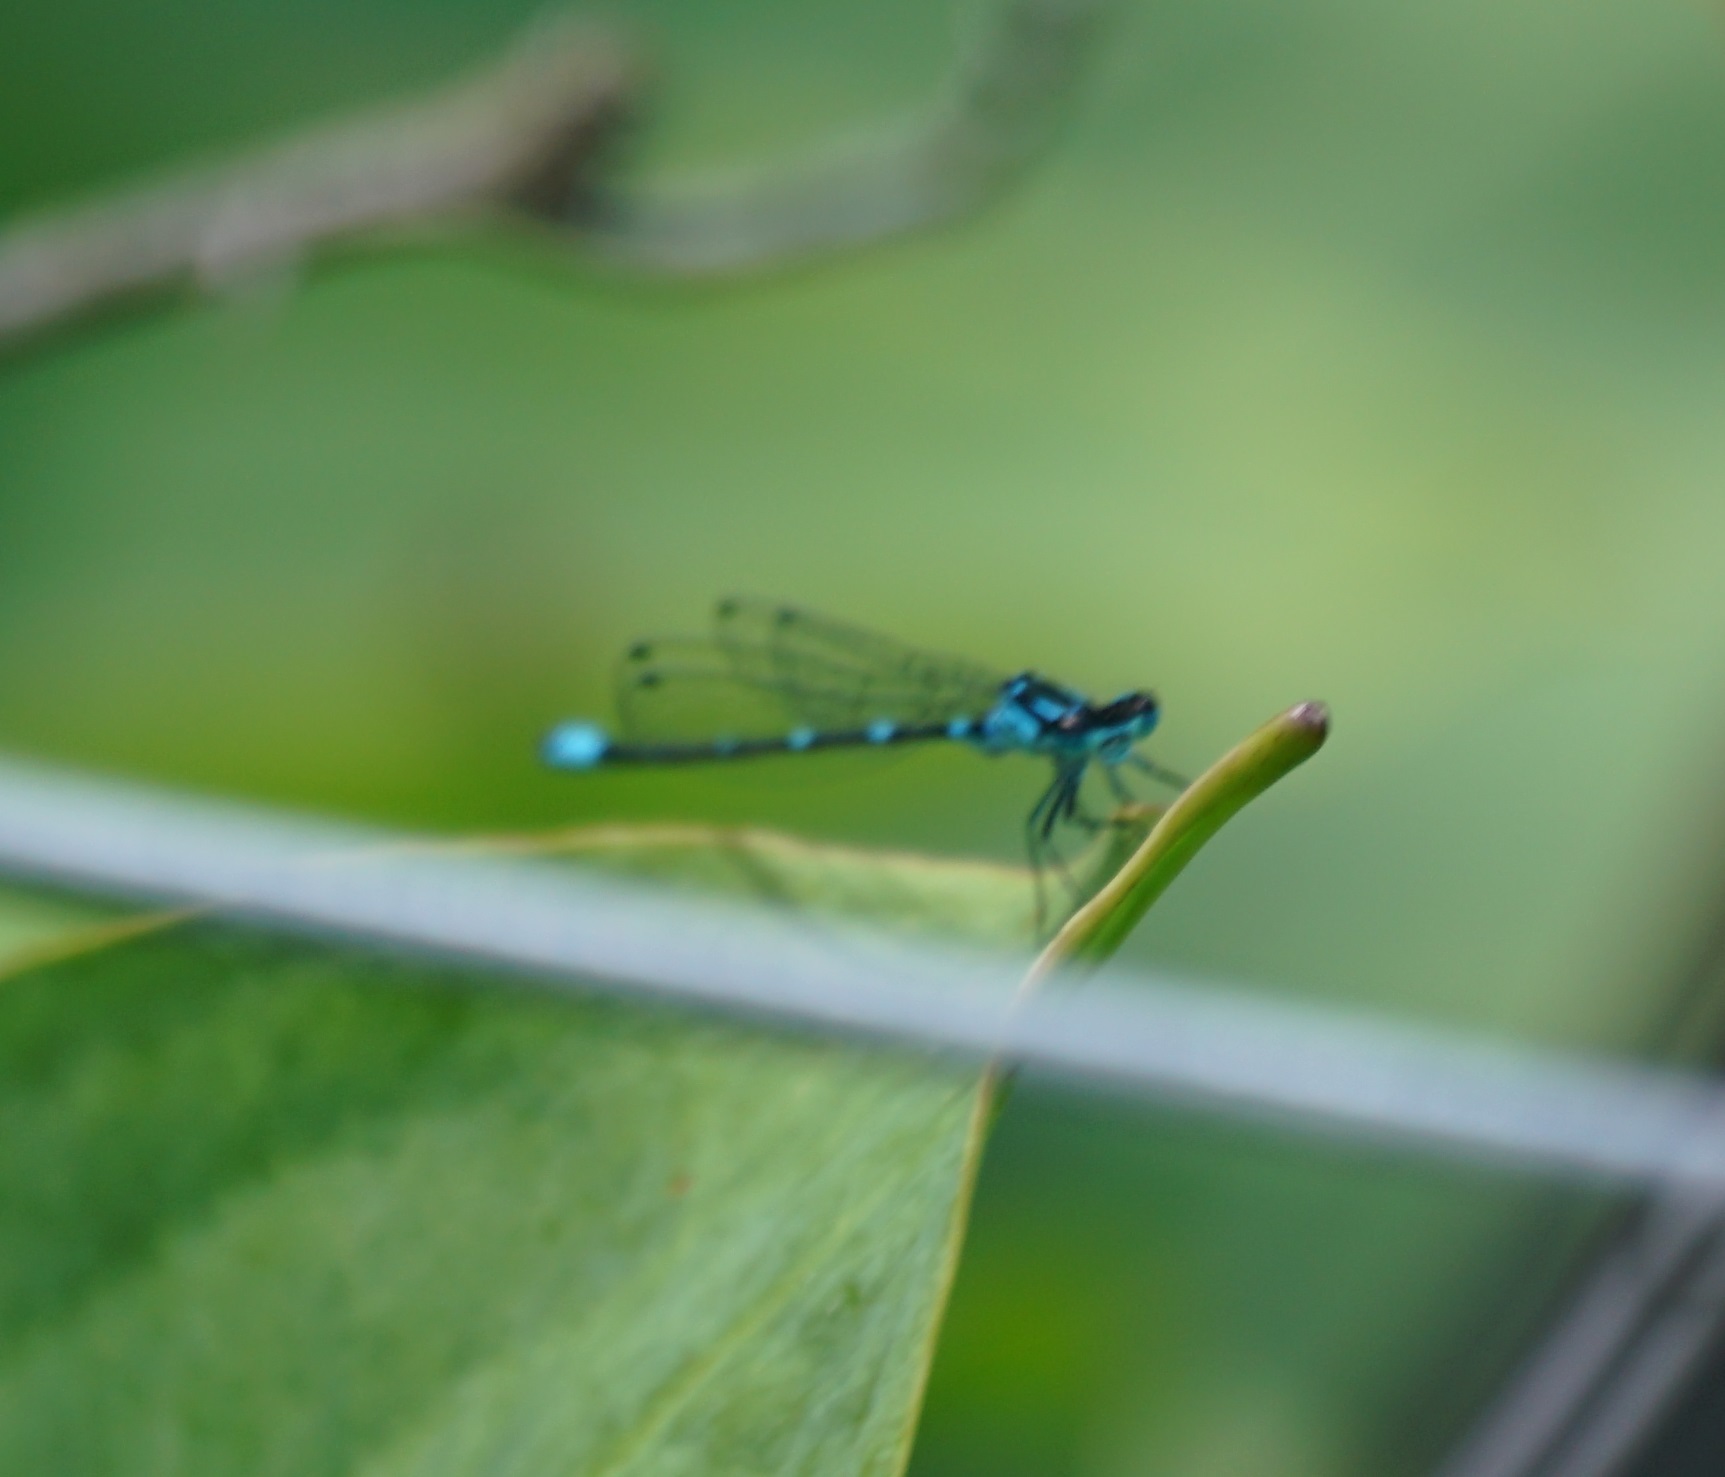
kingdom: Animalia
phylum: Arthropoda
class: Insecta
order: Odonata
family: Coenagrionidae
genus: Coenagrion
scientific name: Coenagrion pulchellum
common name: Variable bluet
